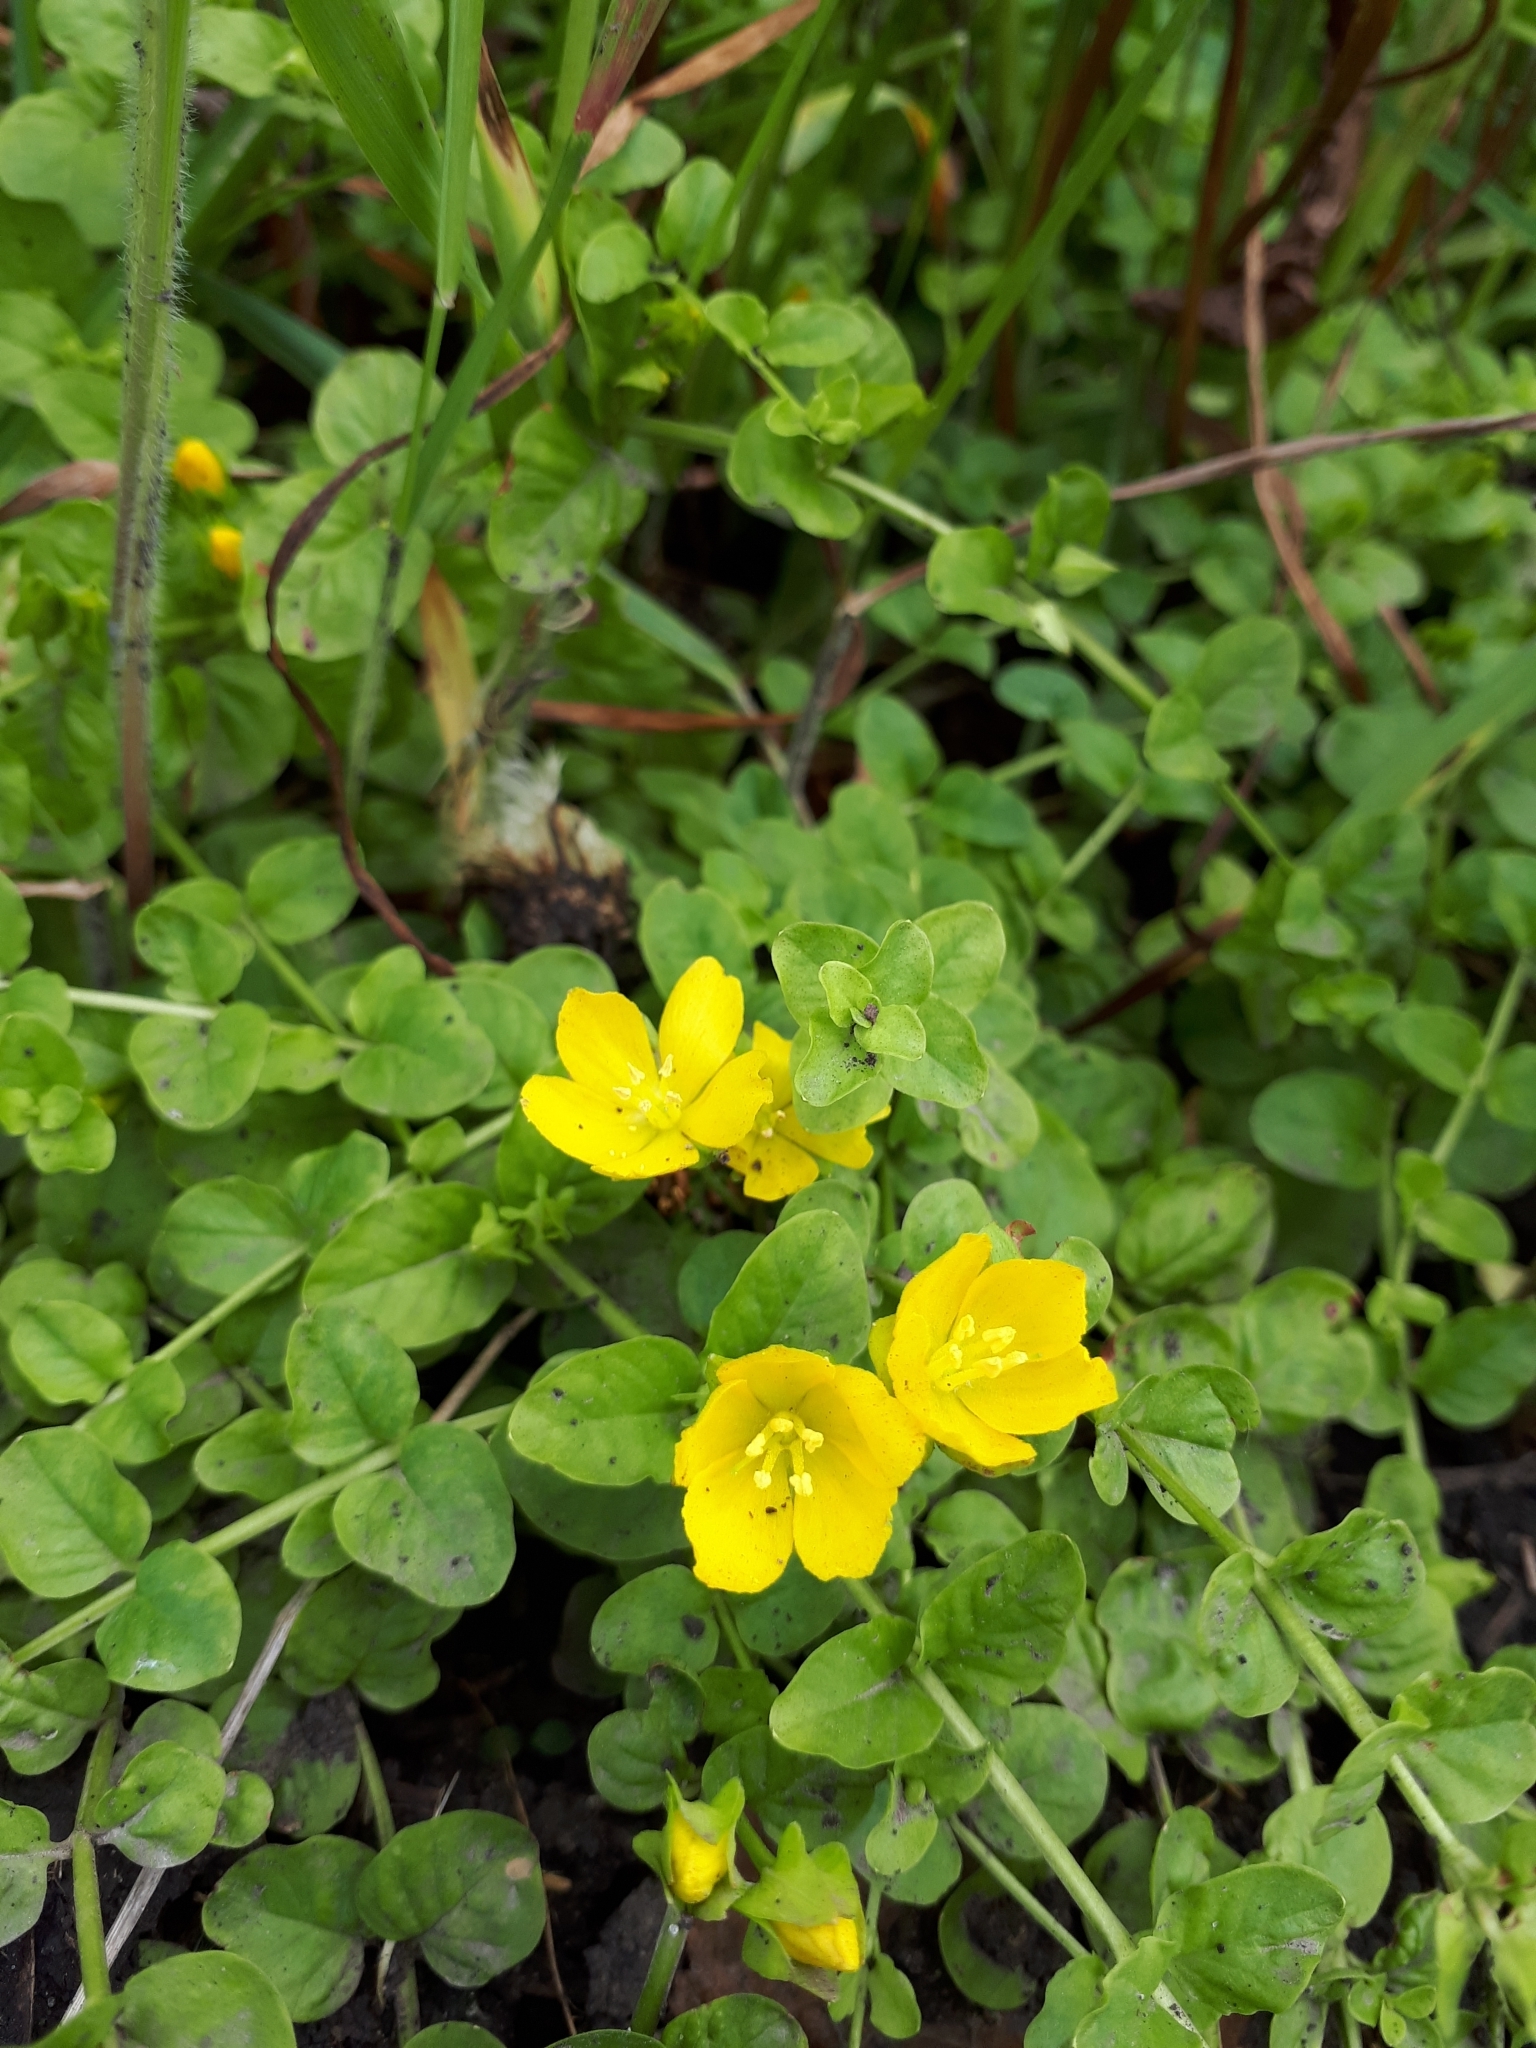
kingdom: Plantae
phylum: Tracheophyta
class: Magnoliopsida
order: Ericales
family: Primulaceae
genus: Lysimachia
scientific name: Lysimachia nummularia
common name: Moneywort
